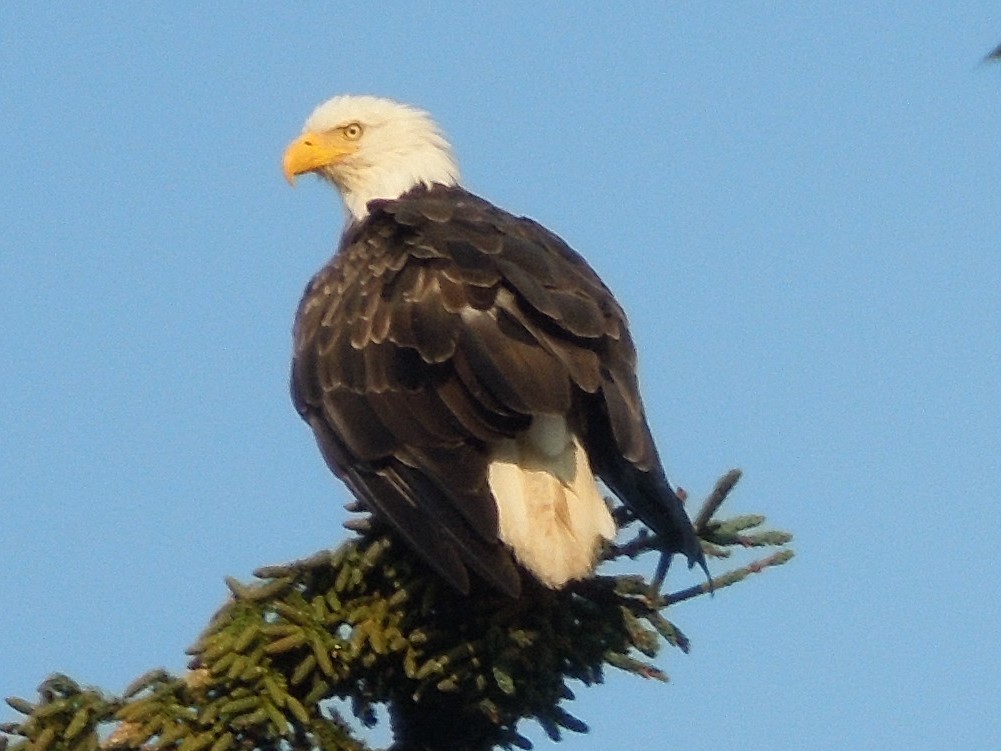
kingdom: Animalia
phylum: Chordata
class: Aves
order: Accipitriformes
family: Accipitridae
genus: Haliaeetus
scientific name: Haliaeetus leucocephalus
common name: Bald eagle
